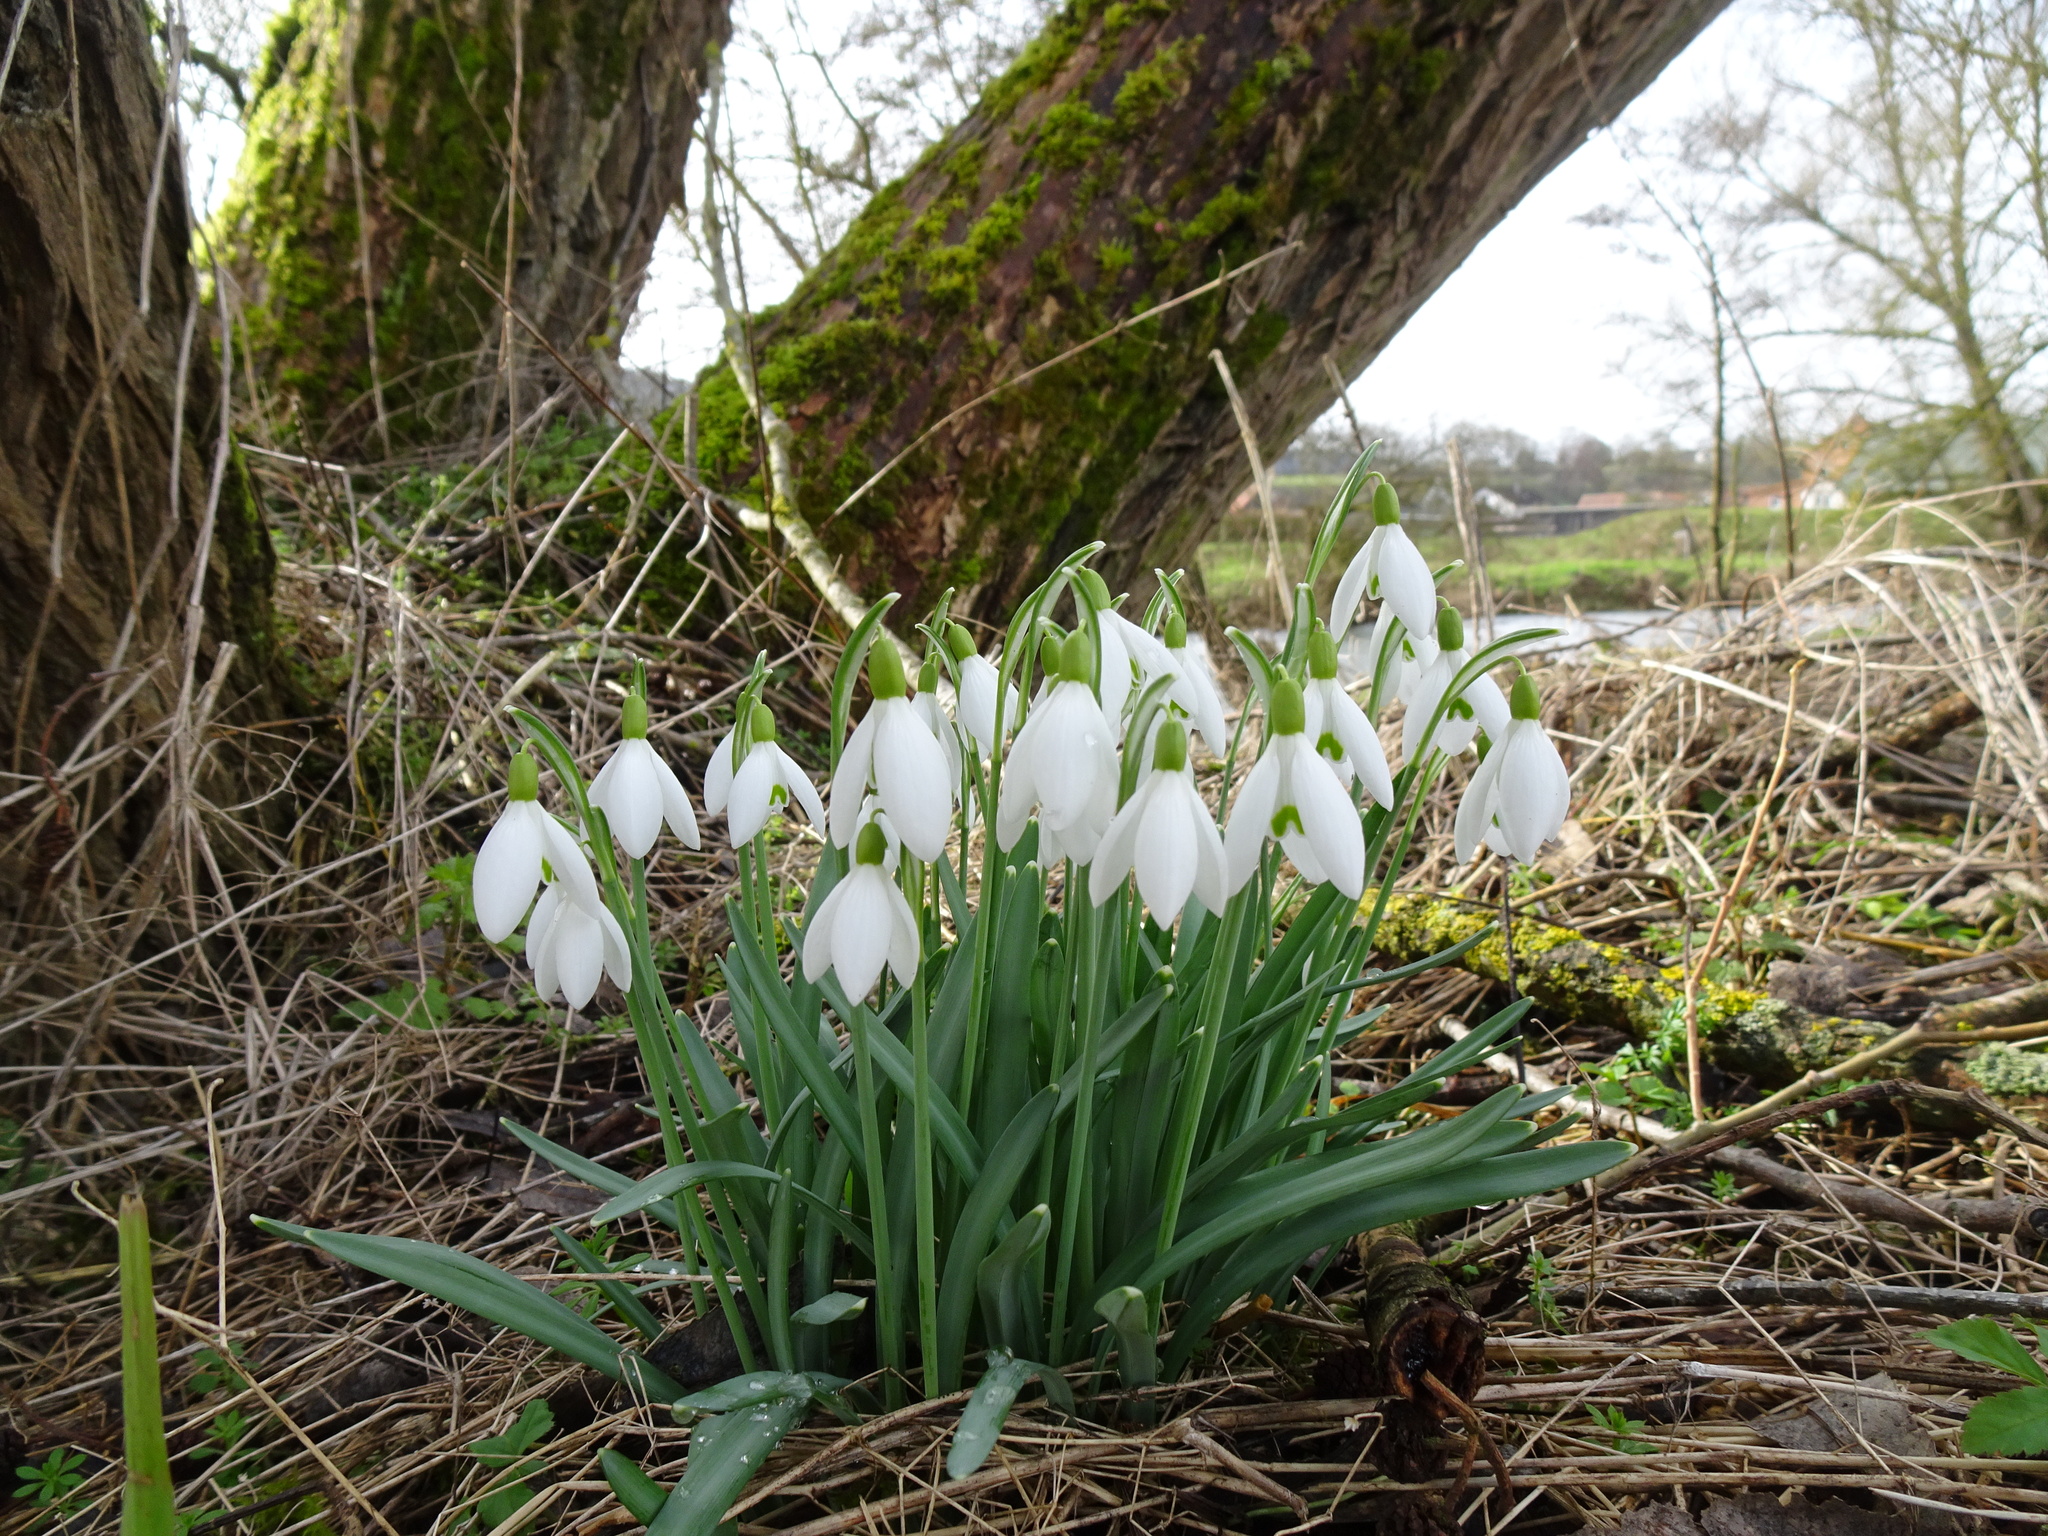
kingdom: Plantae
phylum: Tracheophyta
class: Liliopsida
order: Asparagales
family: Amaryllidaceae
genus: Galanthus
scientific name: Galanthus nivalis
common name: Snowdrop
